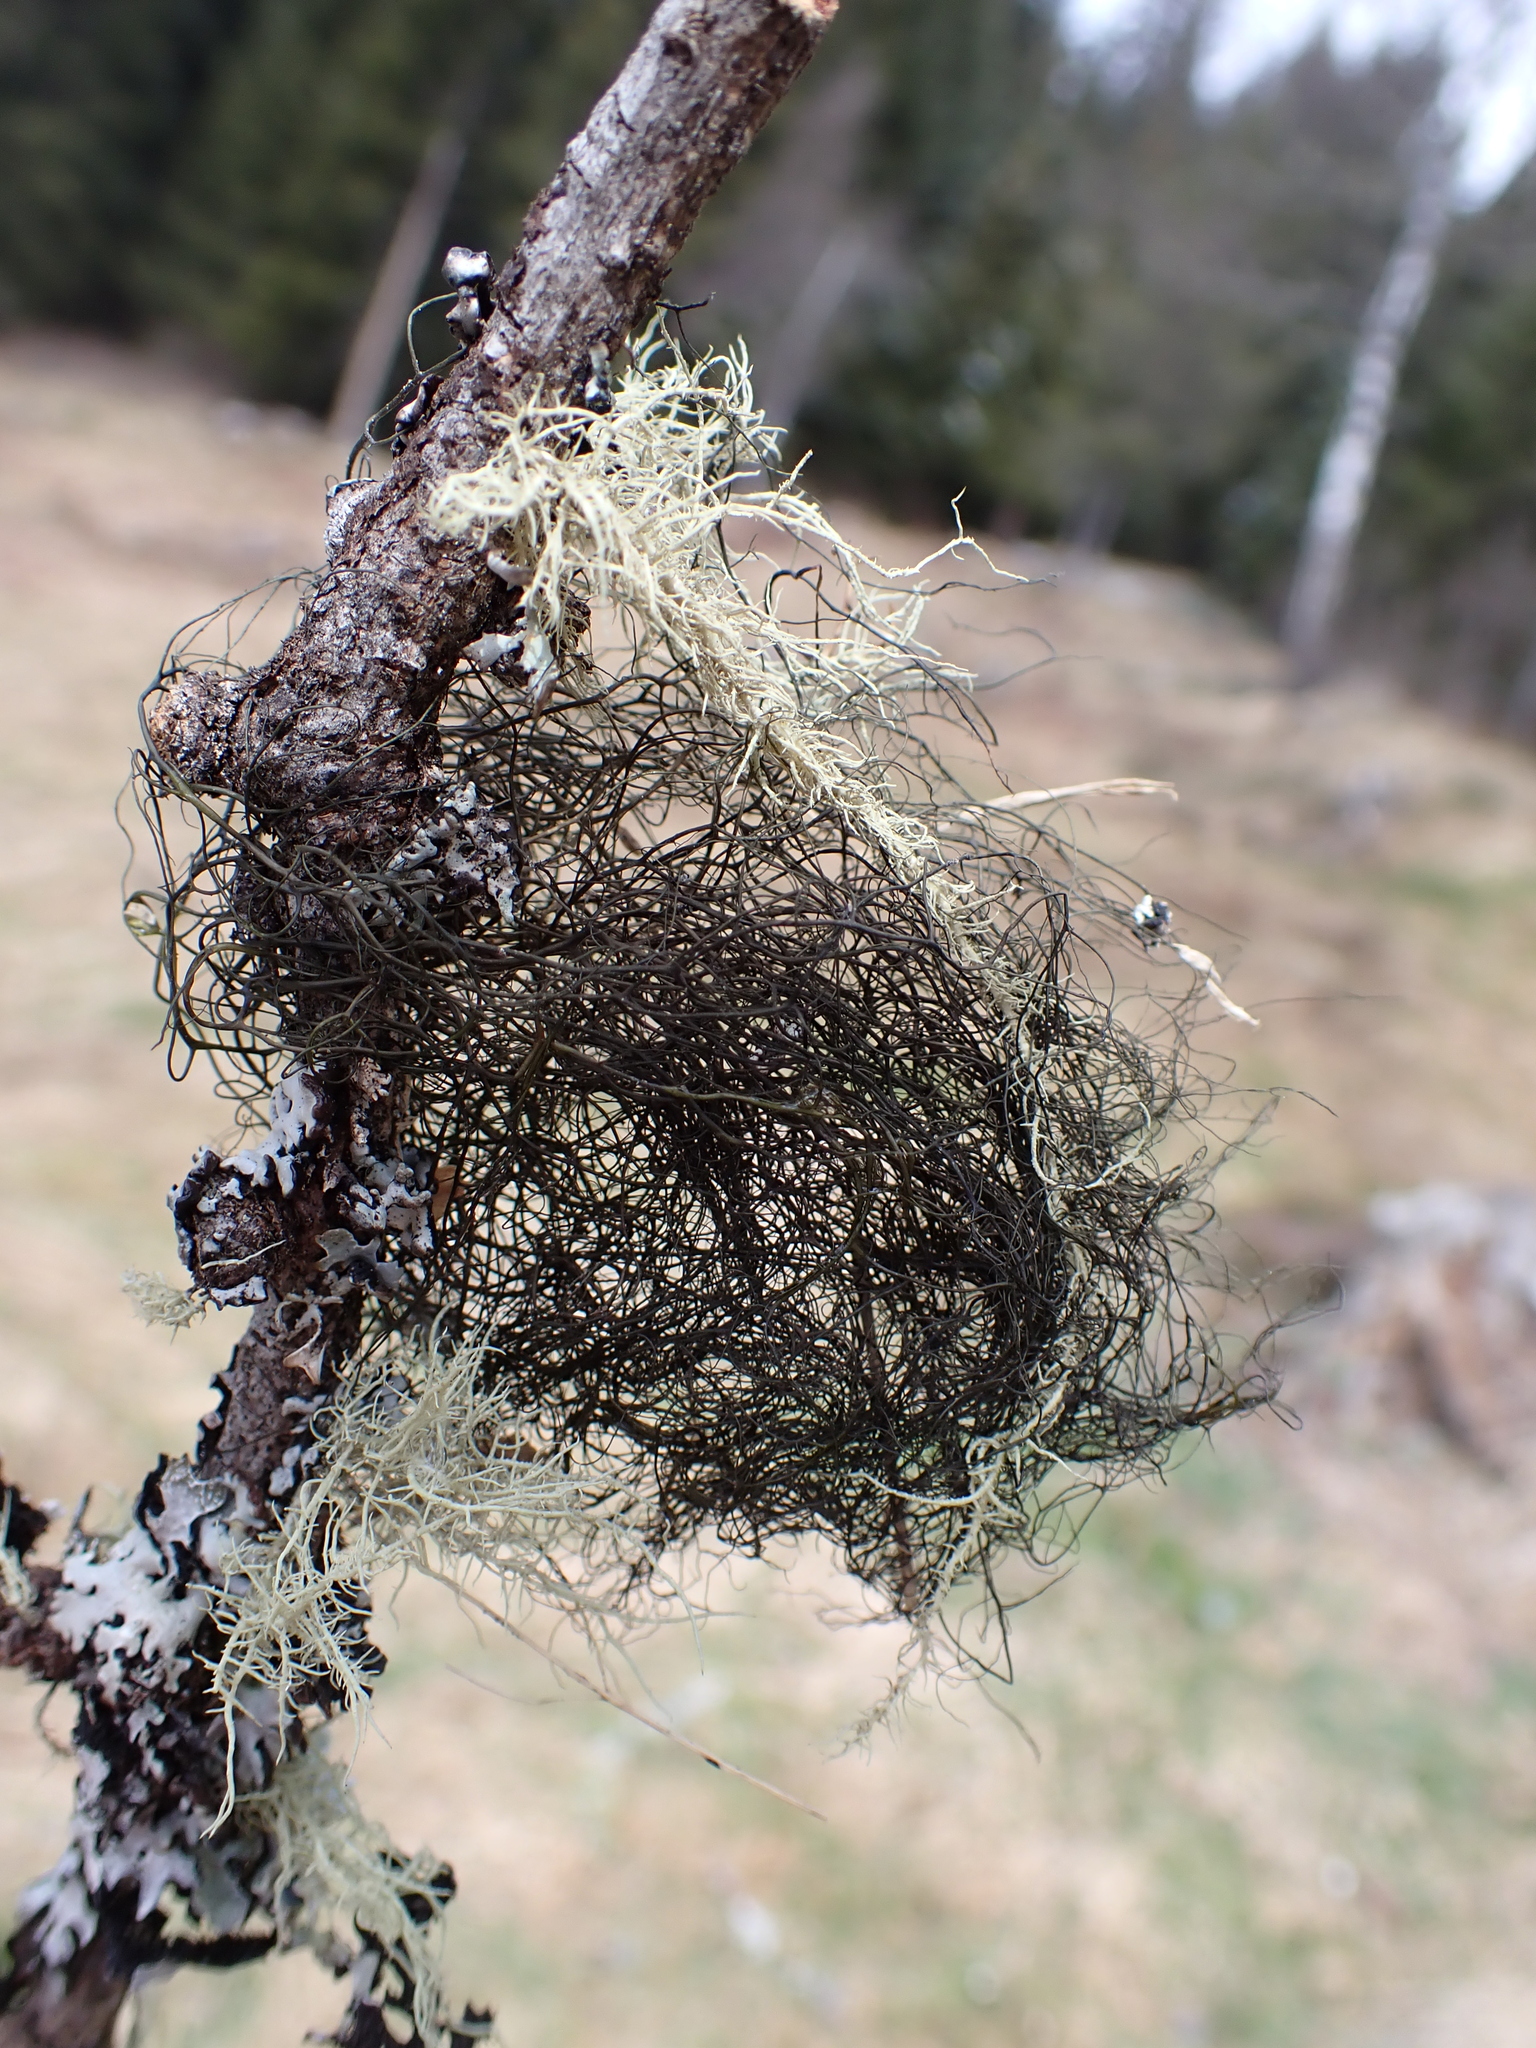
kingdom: Fungi
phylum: Ascomycota
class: Lecanoromycetes
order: Lecanorales
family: Parmeliaceae
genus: Bryoria
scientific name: Bryoria fuscescens
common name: Pale-footed horsehair lichen
